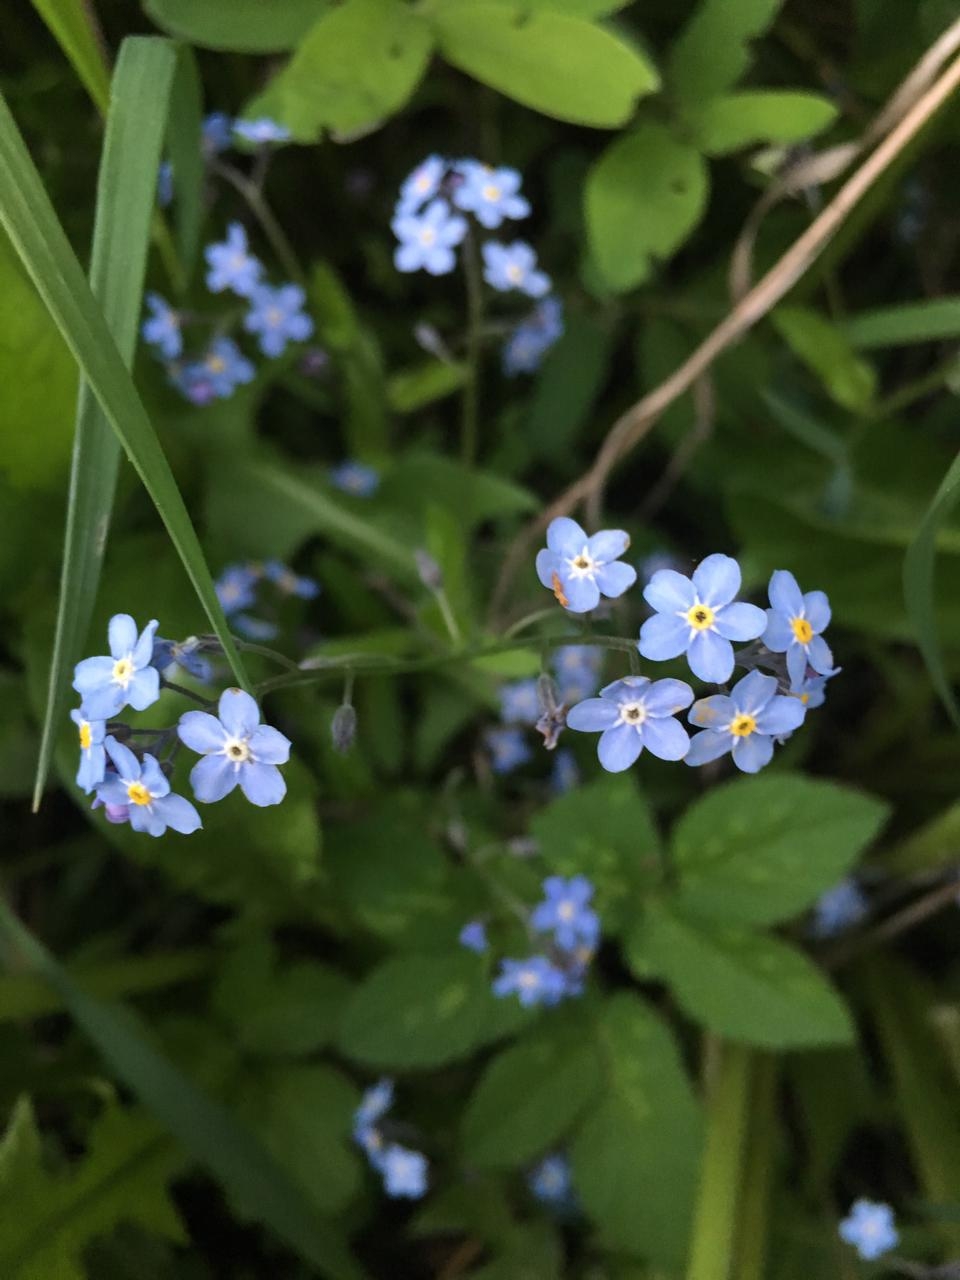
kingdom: Plantae
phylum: Tracheophyta
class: Magnoliopsida
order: Boraginales
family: Boraginaceae
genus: Myosotis
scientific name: Myosotis sylvatica
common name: Wood forget-me-not
